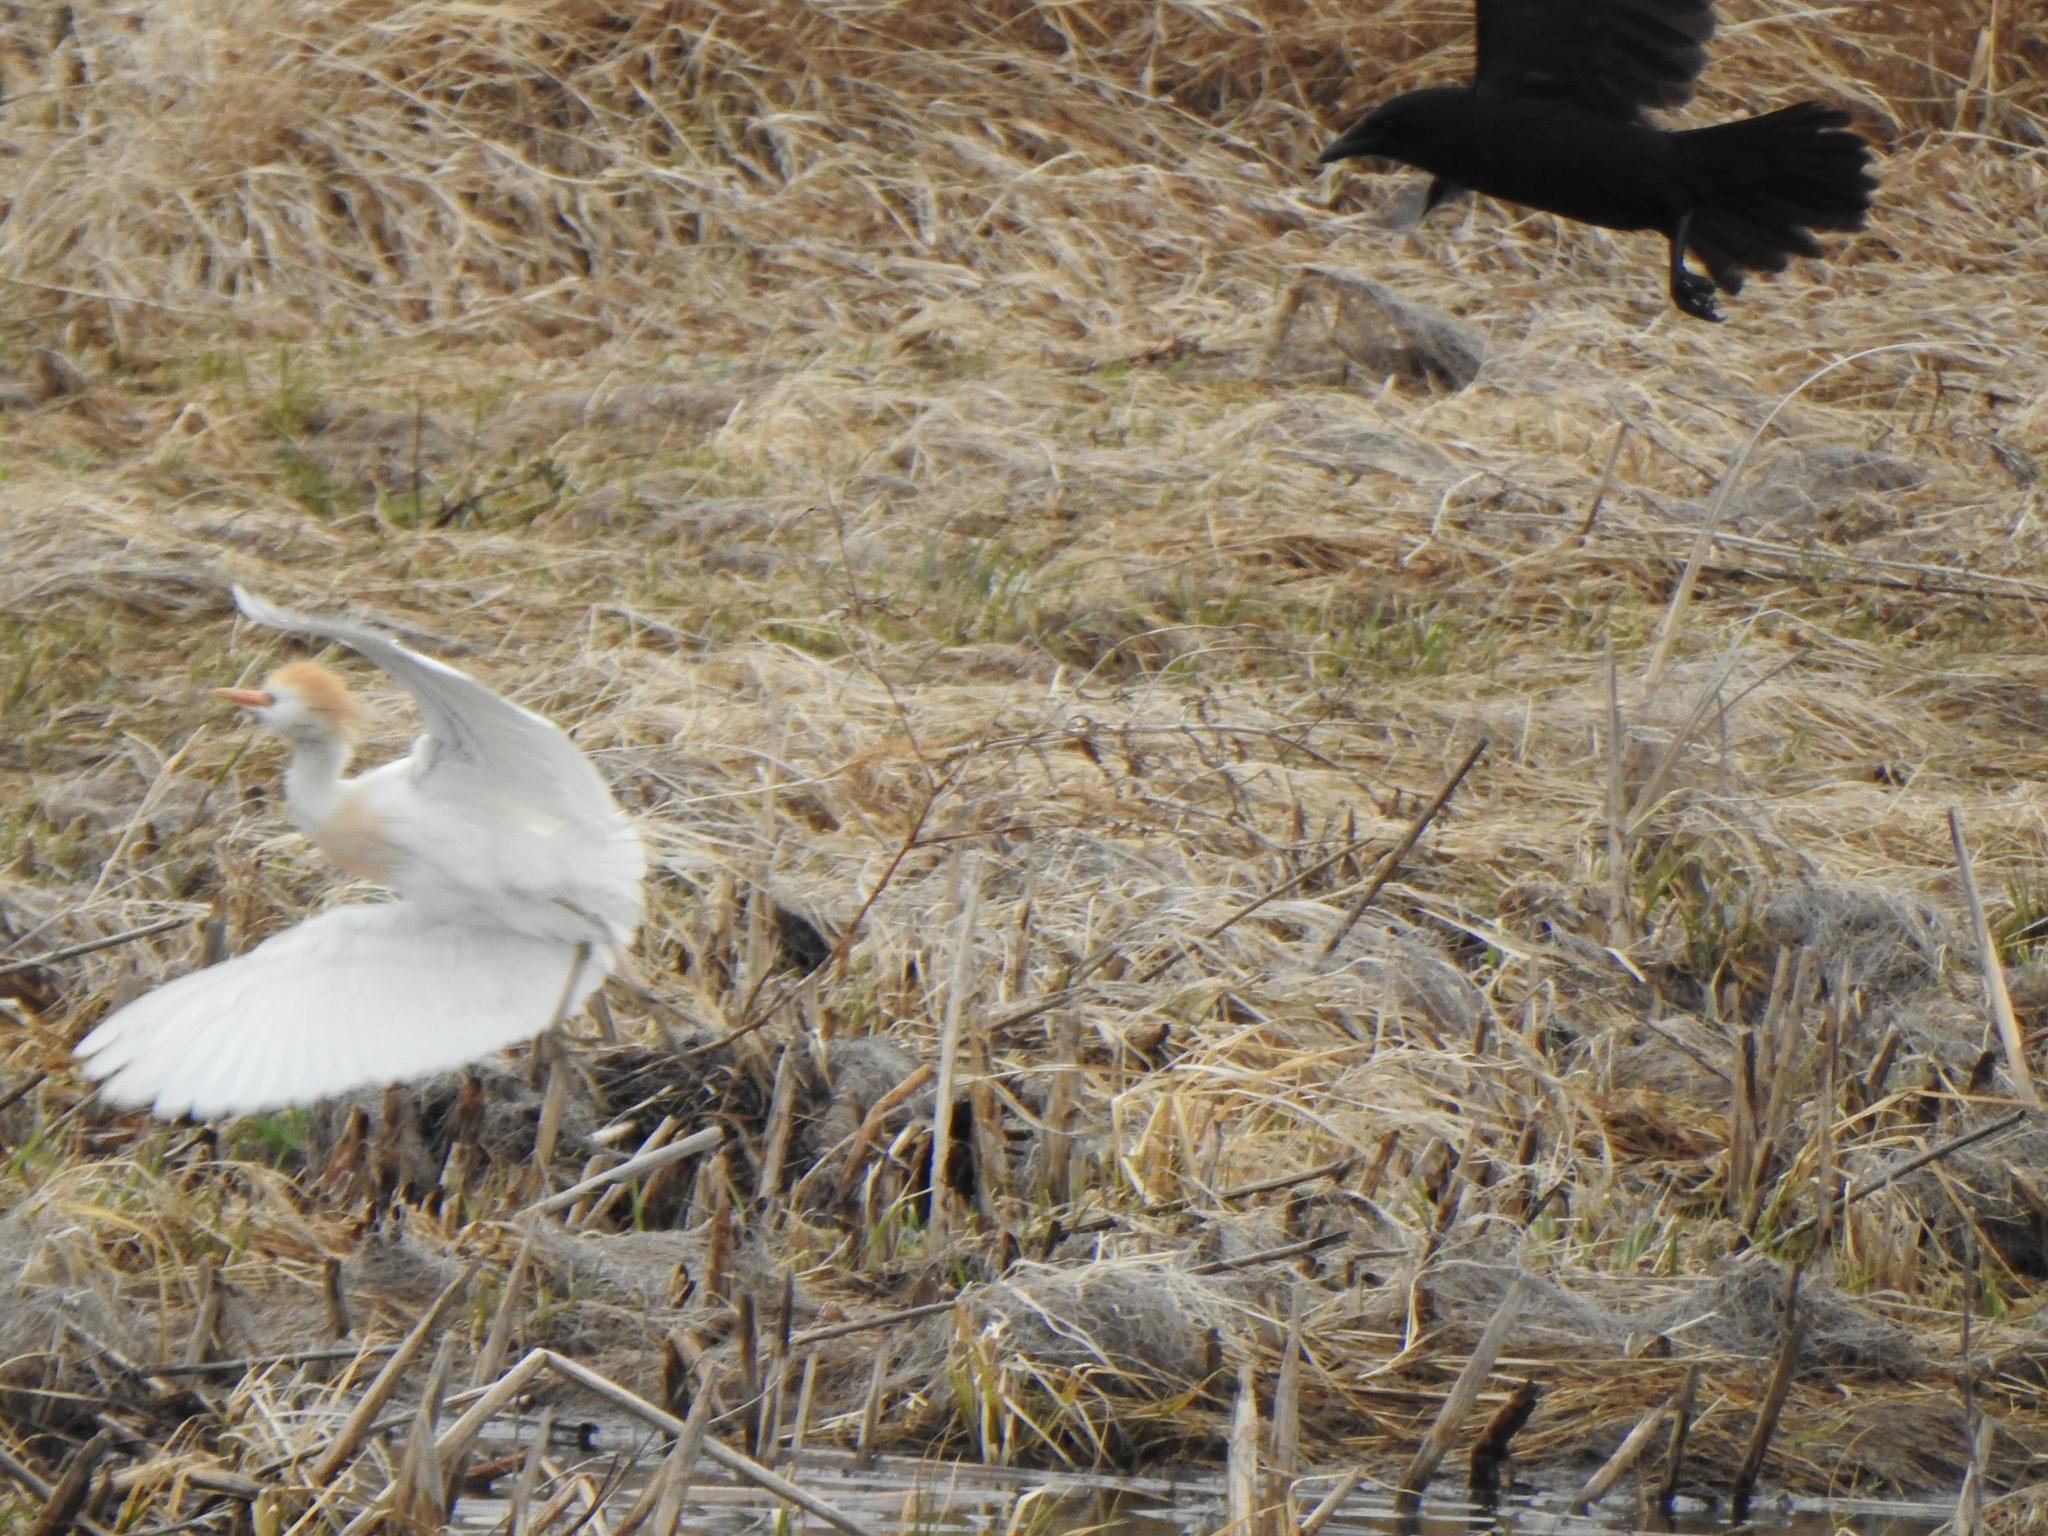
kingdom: Animalia
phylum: Chordata
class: Aves
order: Passeriformes
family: Corvidae
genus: Corvus
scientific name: Corvus brachyrhynchos
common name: American crow
